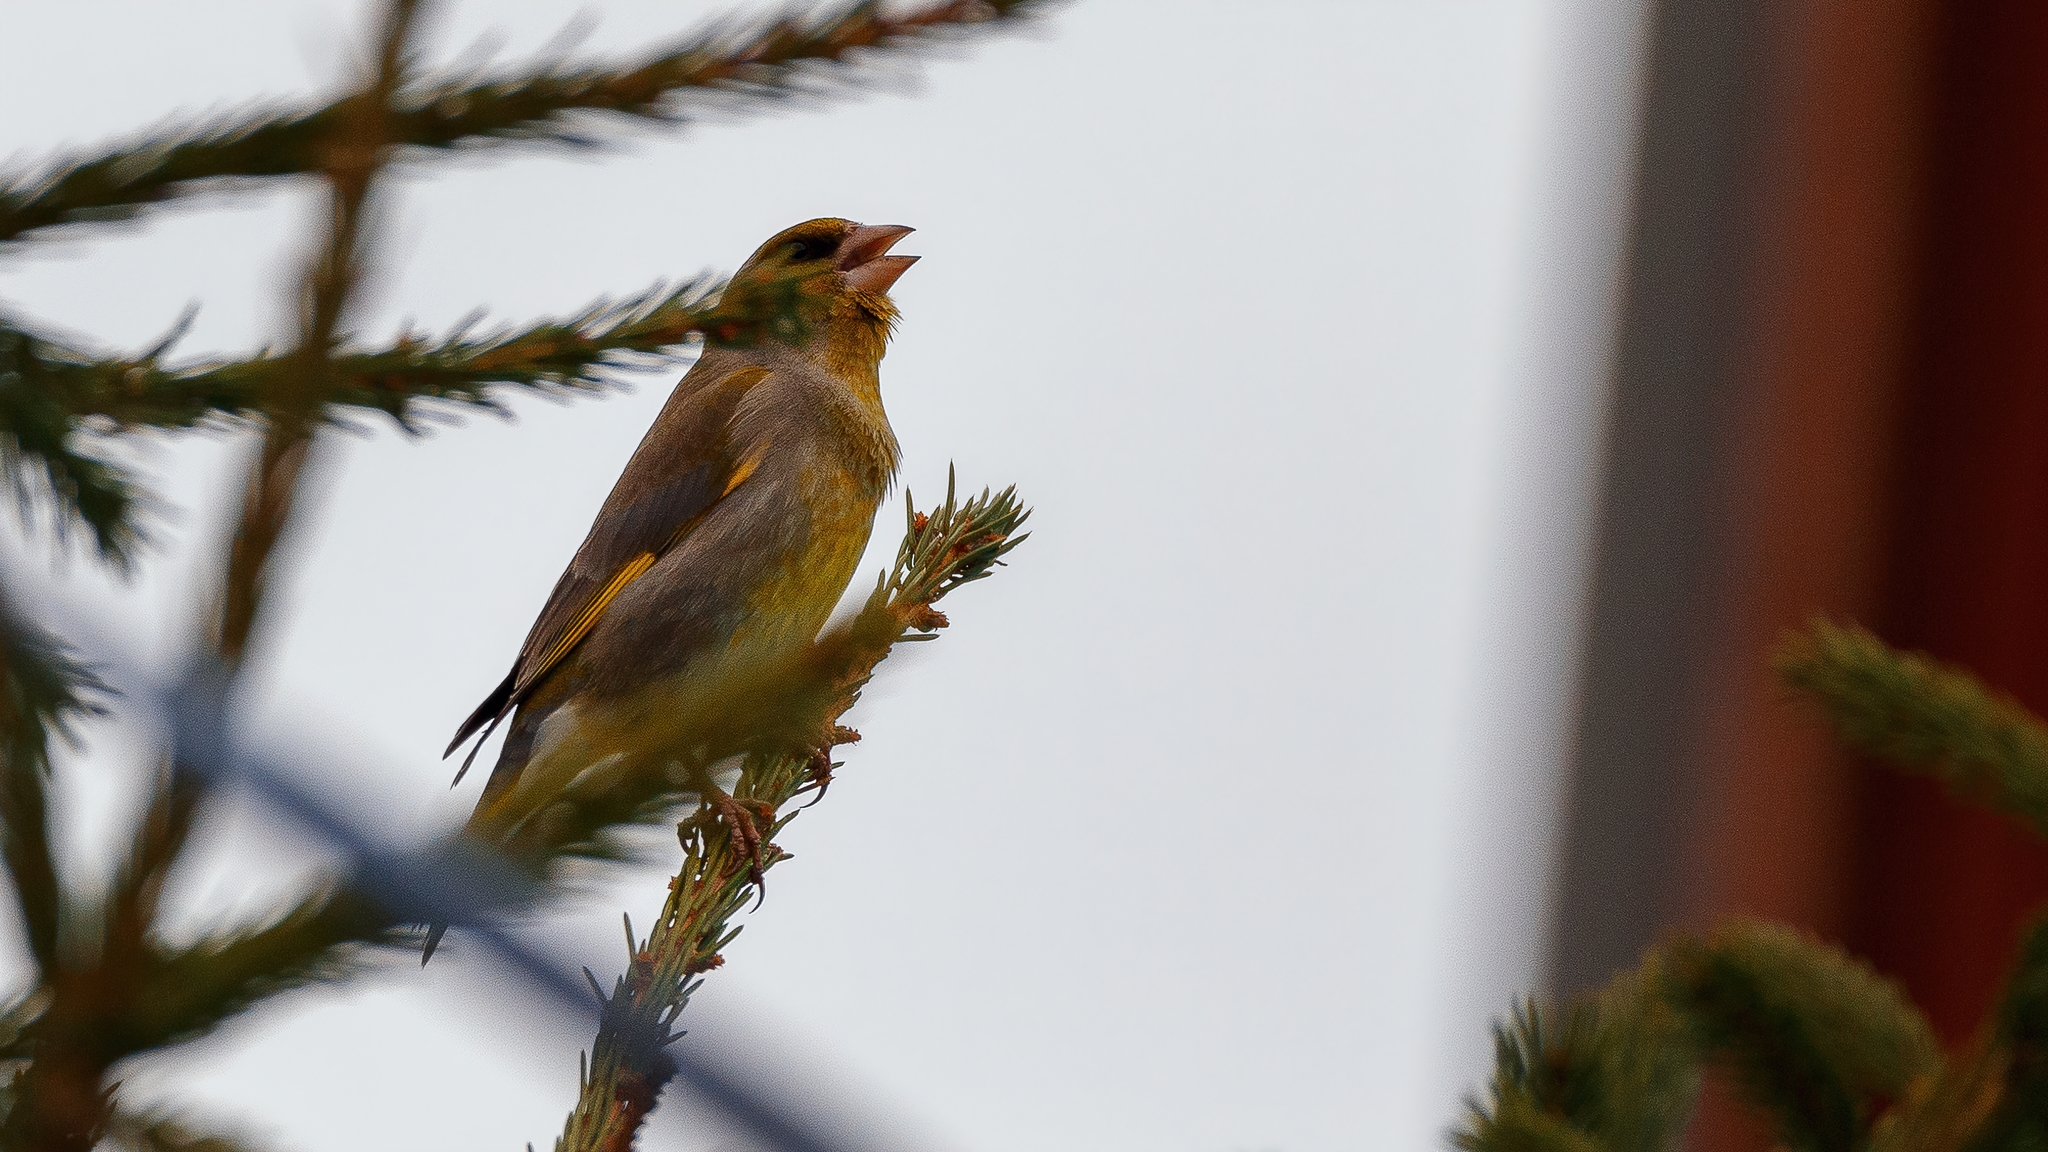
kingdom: Plantae
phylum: Tracheophyta
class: Liliopsida
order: Poales
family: Poaceae
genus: Chloris
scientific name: Chloris chloris
